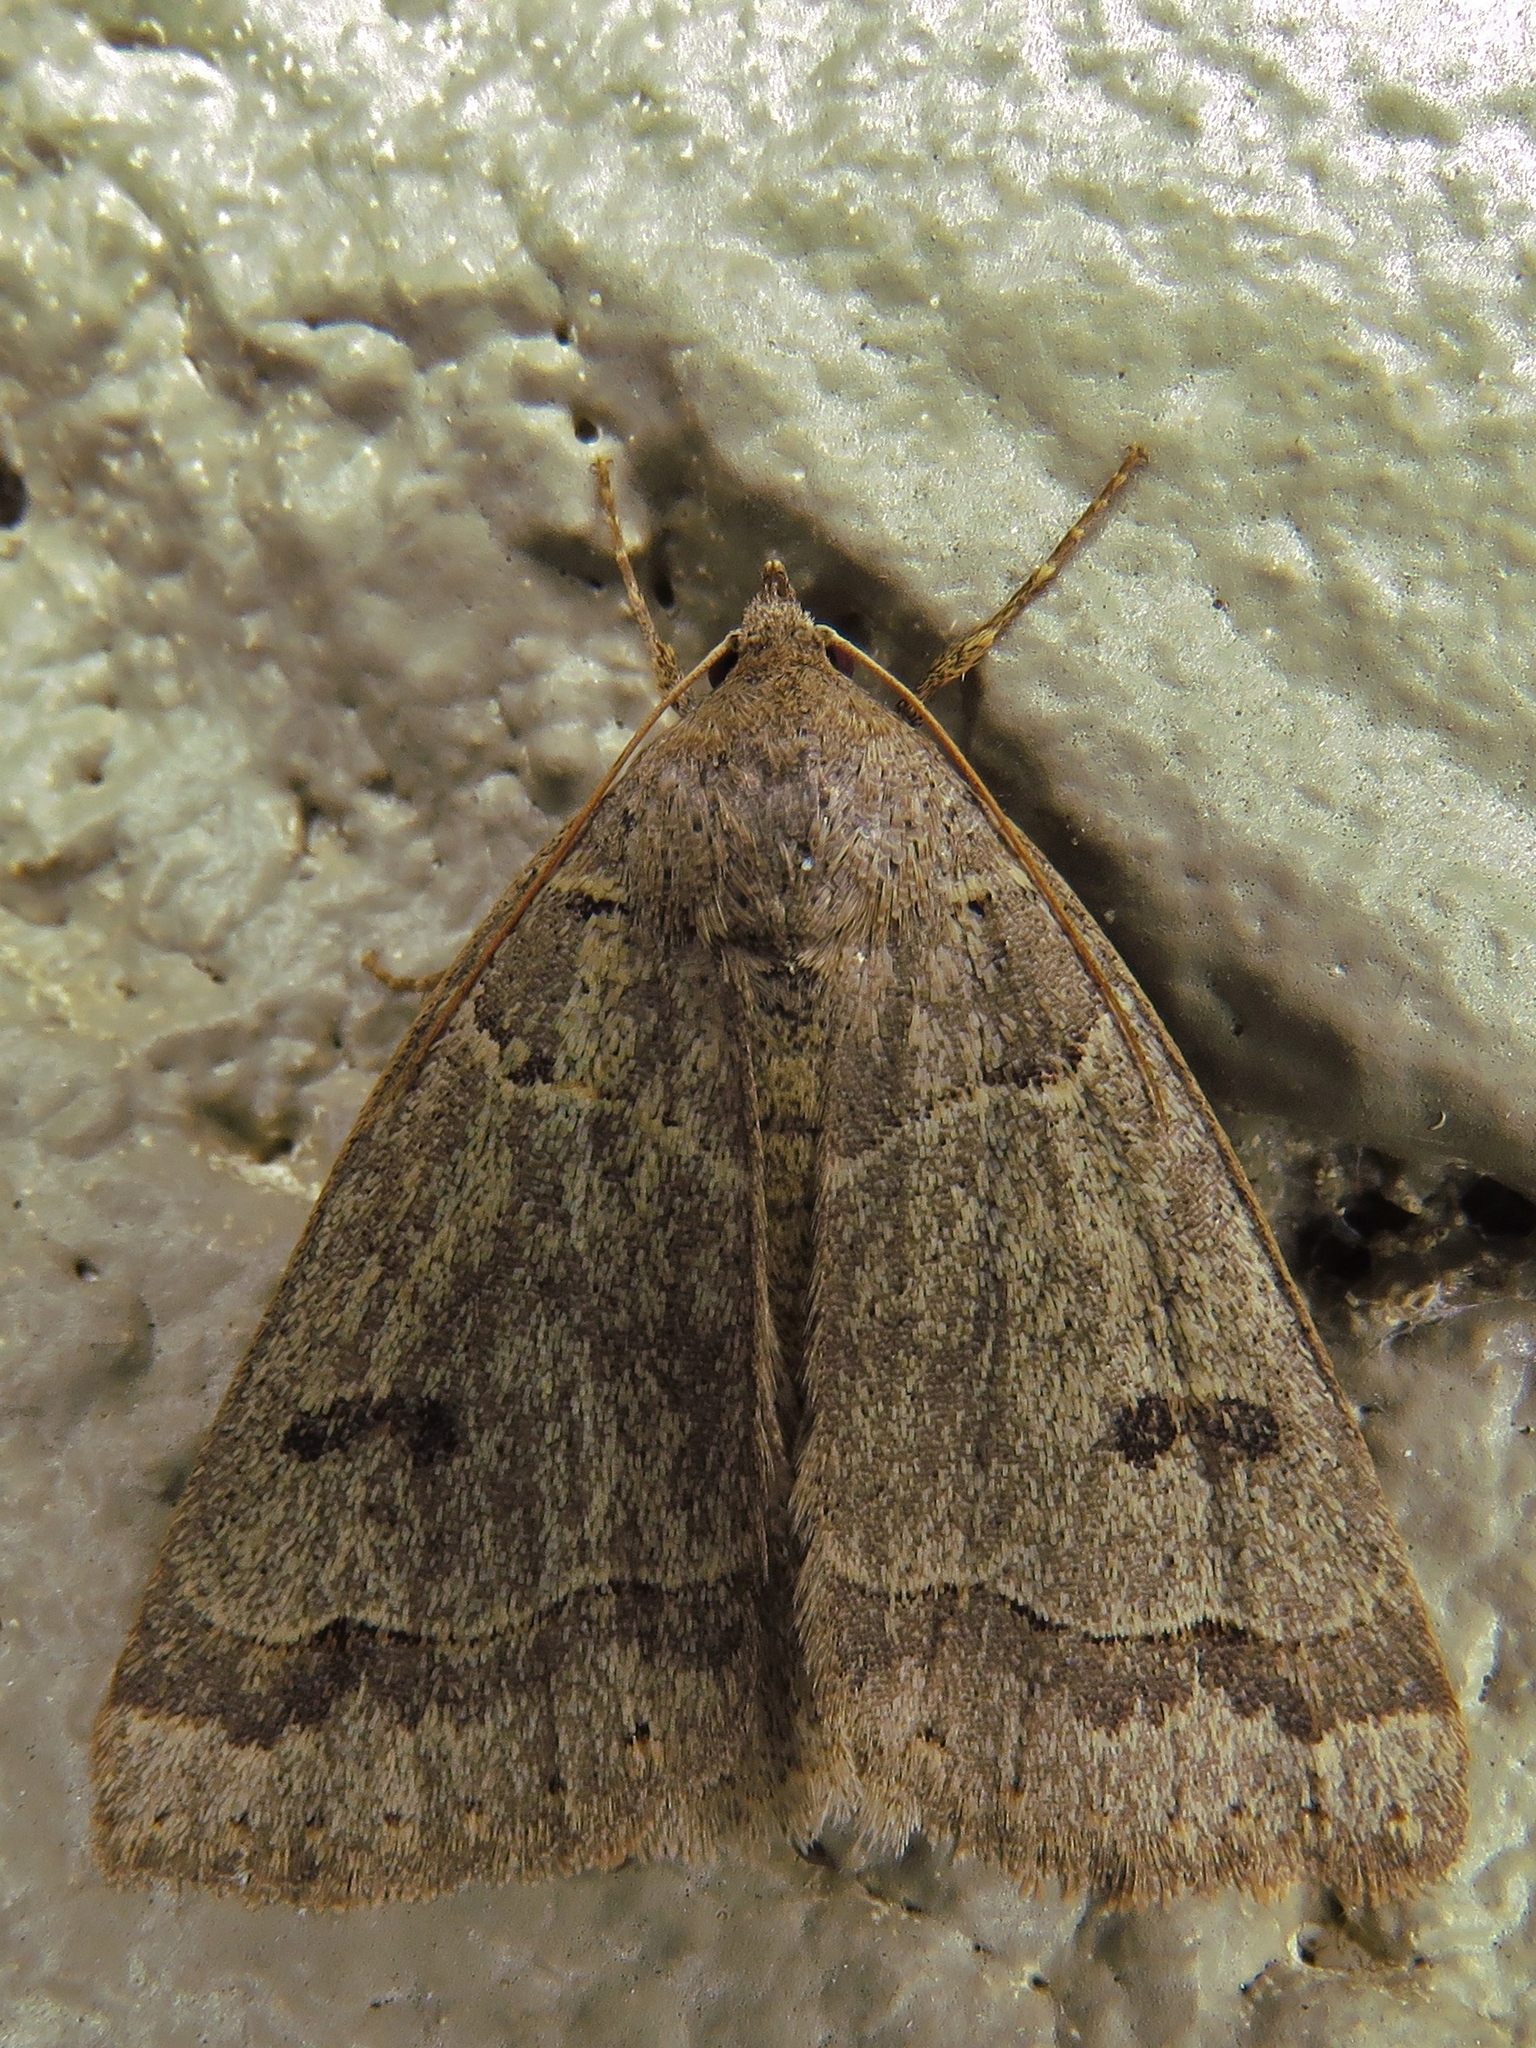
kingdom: Animalia
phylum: Arthropoda
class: Insecta
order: Lepidoptera
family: Erebidae
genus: Phoberia
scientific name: Phoberia atomaris
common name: Common oak moth
